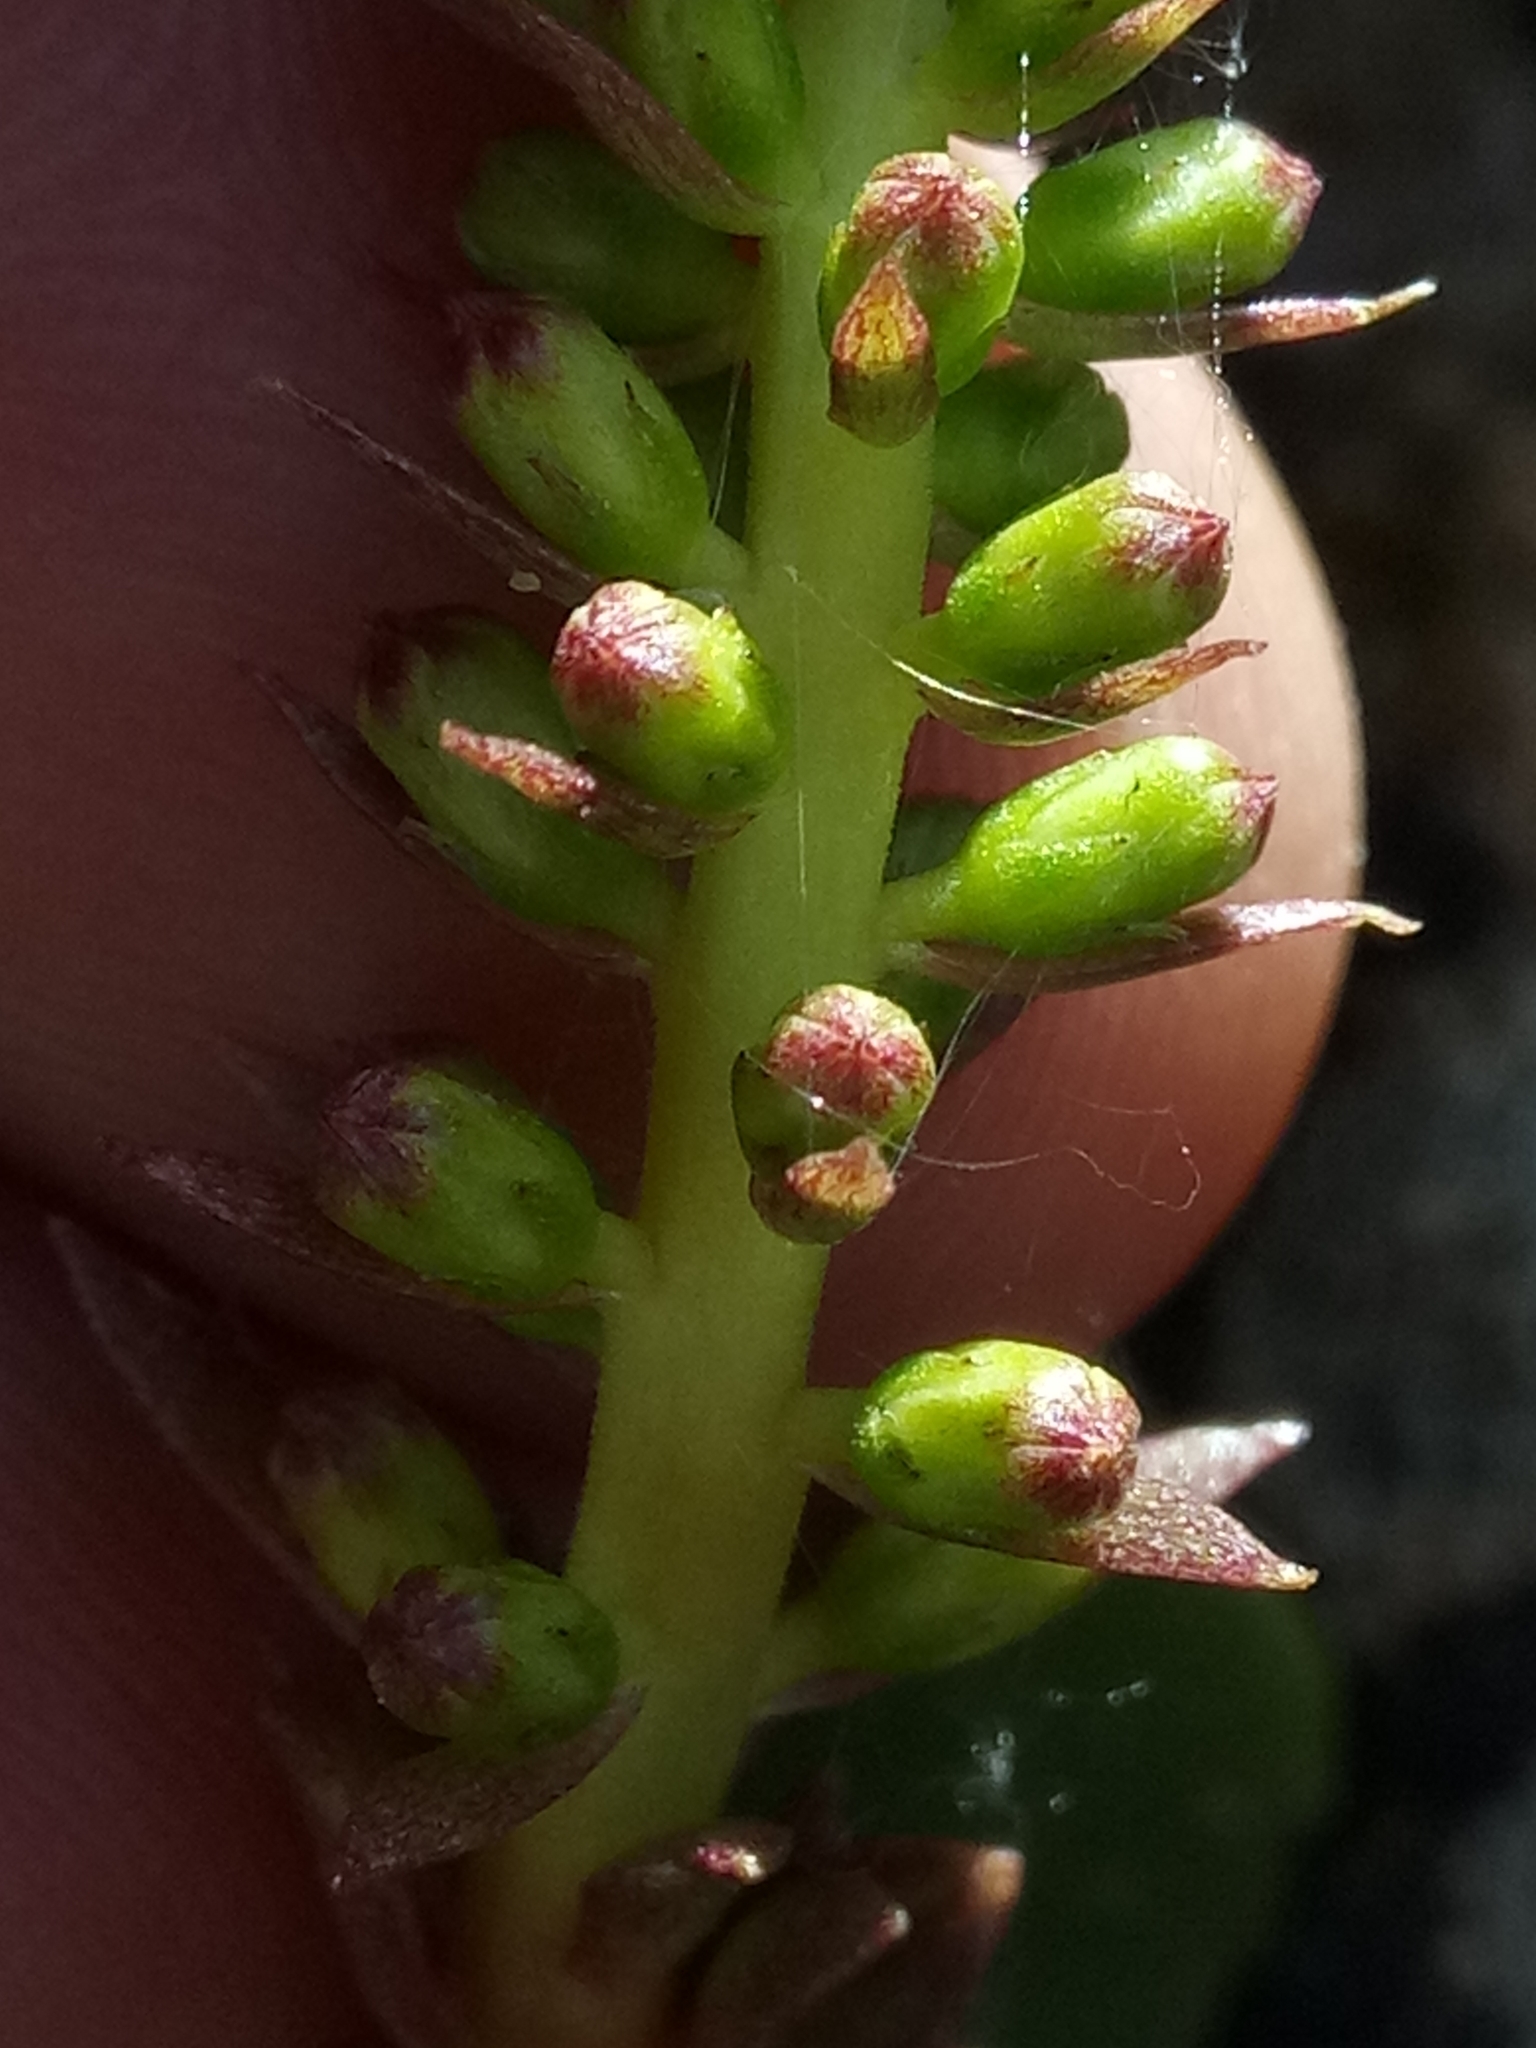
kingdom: Plantae
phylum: Tracheophyta
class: Magnoliopsida
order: Saxifragales
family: Crassulaceae
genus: Umbilicus
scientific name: Umbilicus horizontalis
